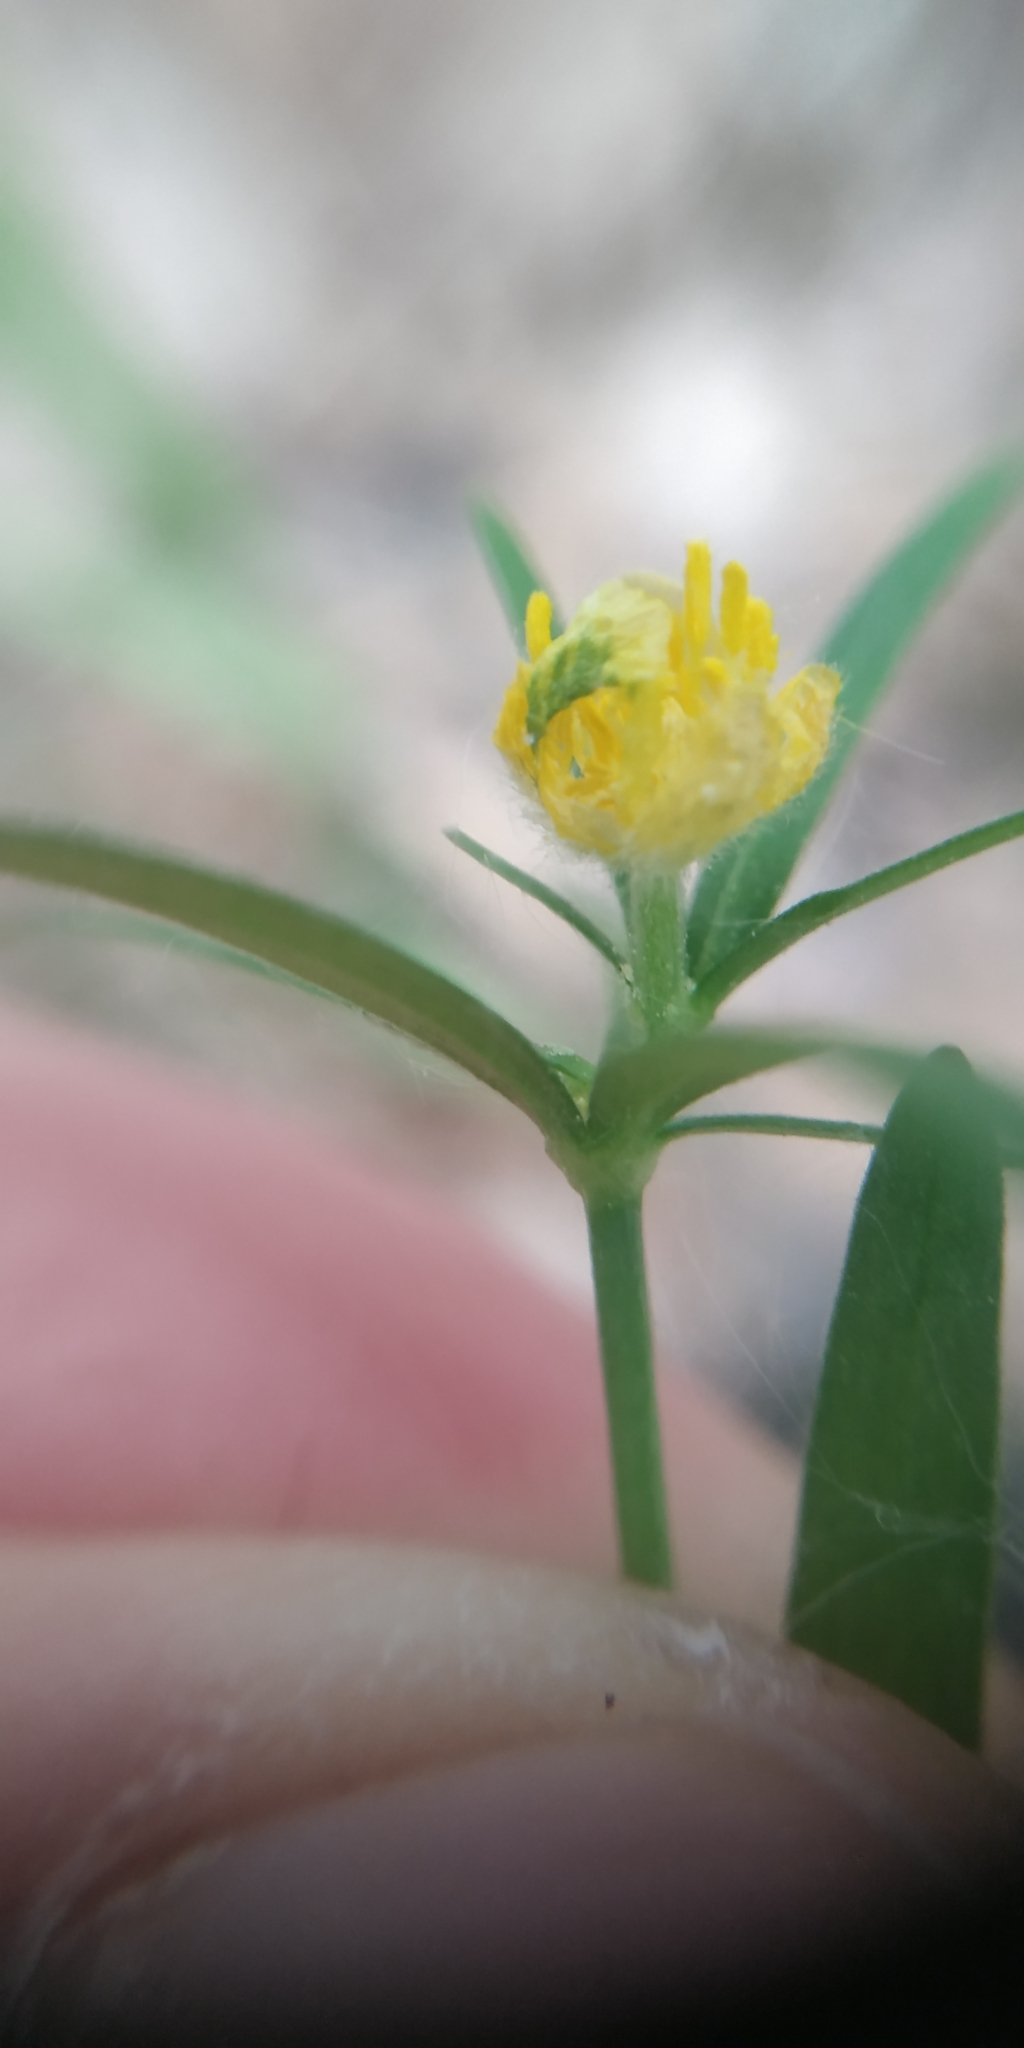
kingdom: Plantae
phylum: Tracheophyta
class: Magnoliopsida
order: Ranunculales
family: Ranunculaceae
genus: Ranunculus
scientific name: Ranunculus auricomus
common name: Goldilocks buttercup
